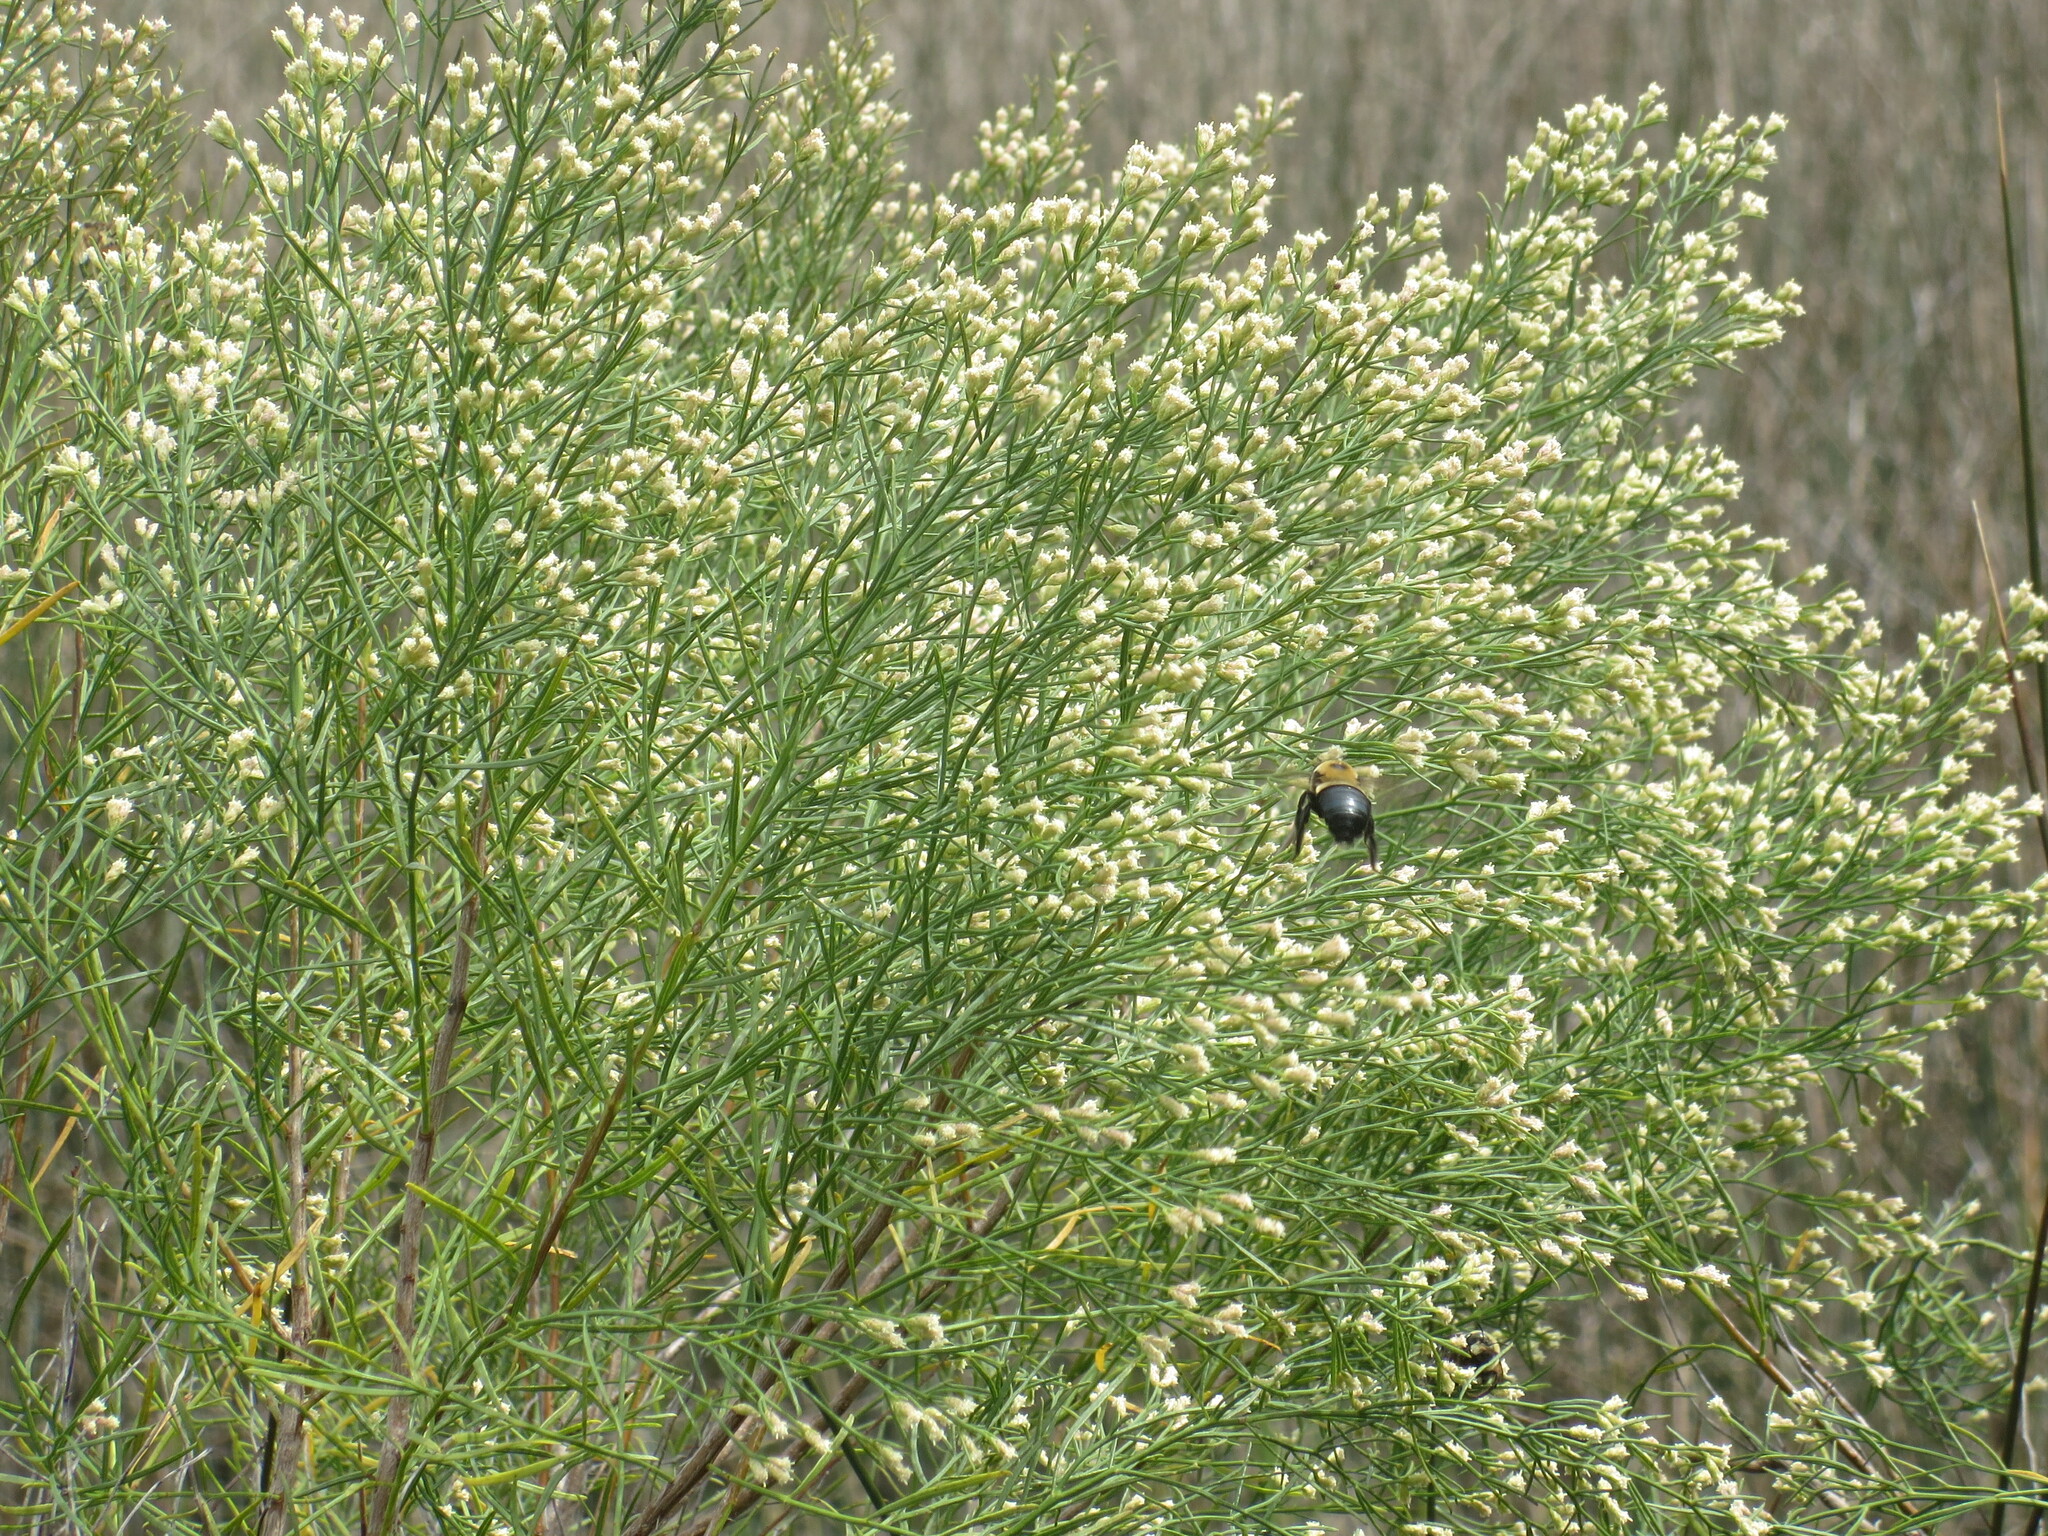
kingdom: Animalia
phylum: Arthropoda
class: Insecta
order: Hymenoptera
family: Apidae
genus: Xylocopa
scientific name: Xylocopa virginica
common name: Carpenter bee
